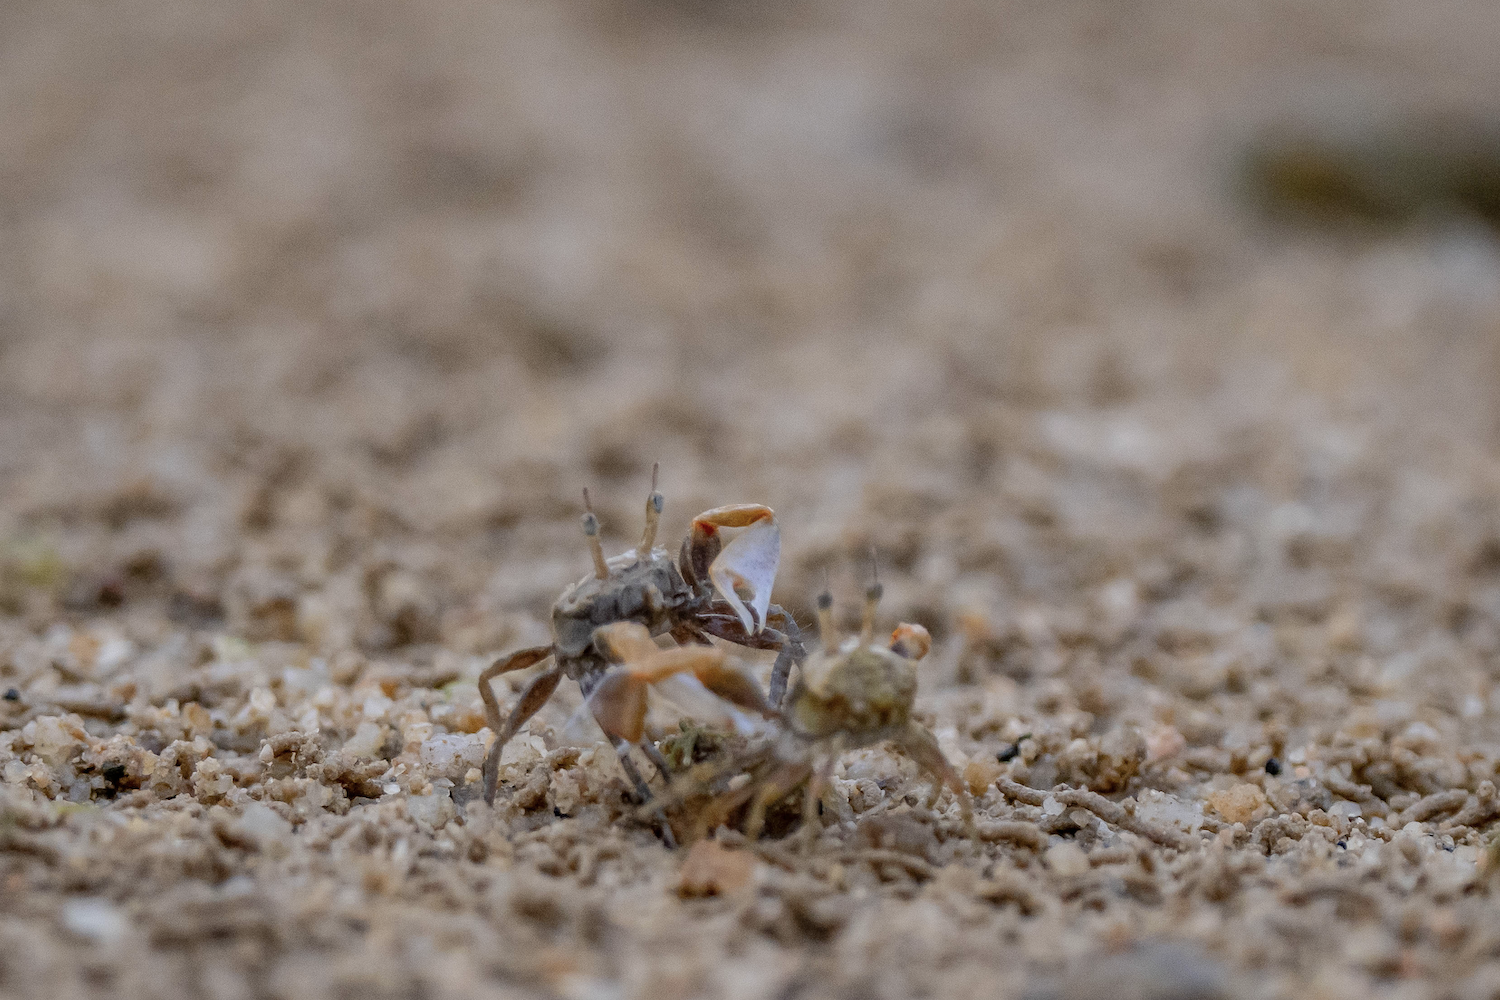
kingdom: Animalia
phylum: Arthropoda
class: Malacostraca
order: Decapoda
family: Dotillidae
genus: Tmethypocoelis
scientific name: Tmethypocoelis ceratophora
